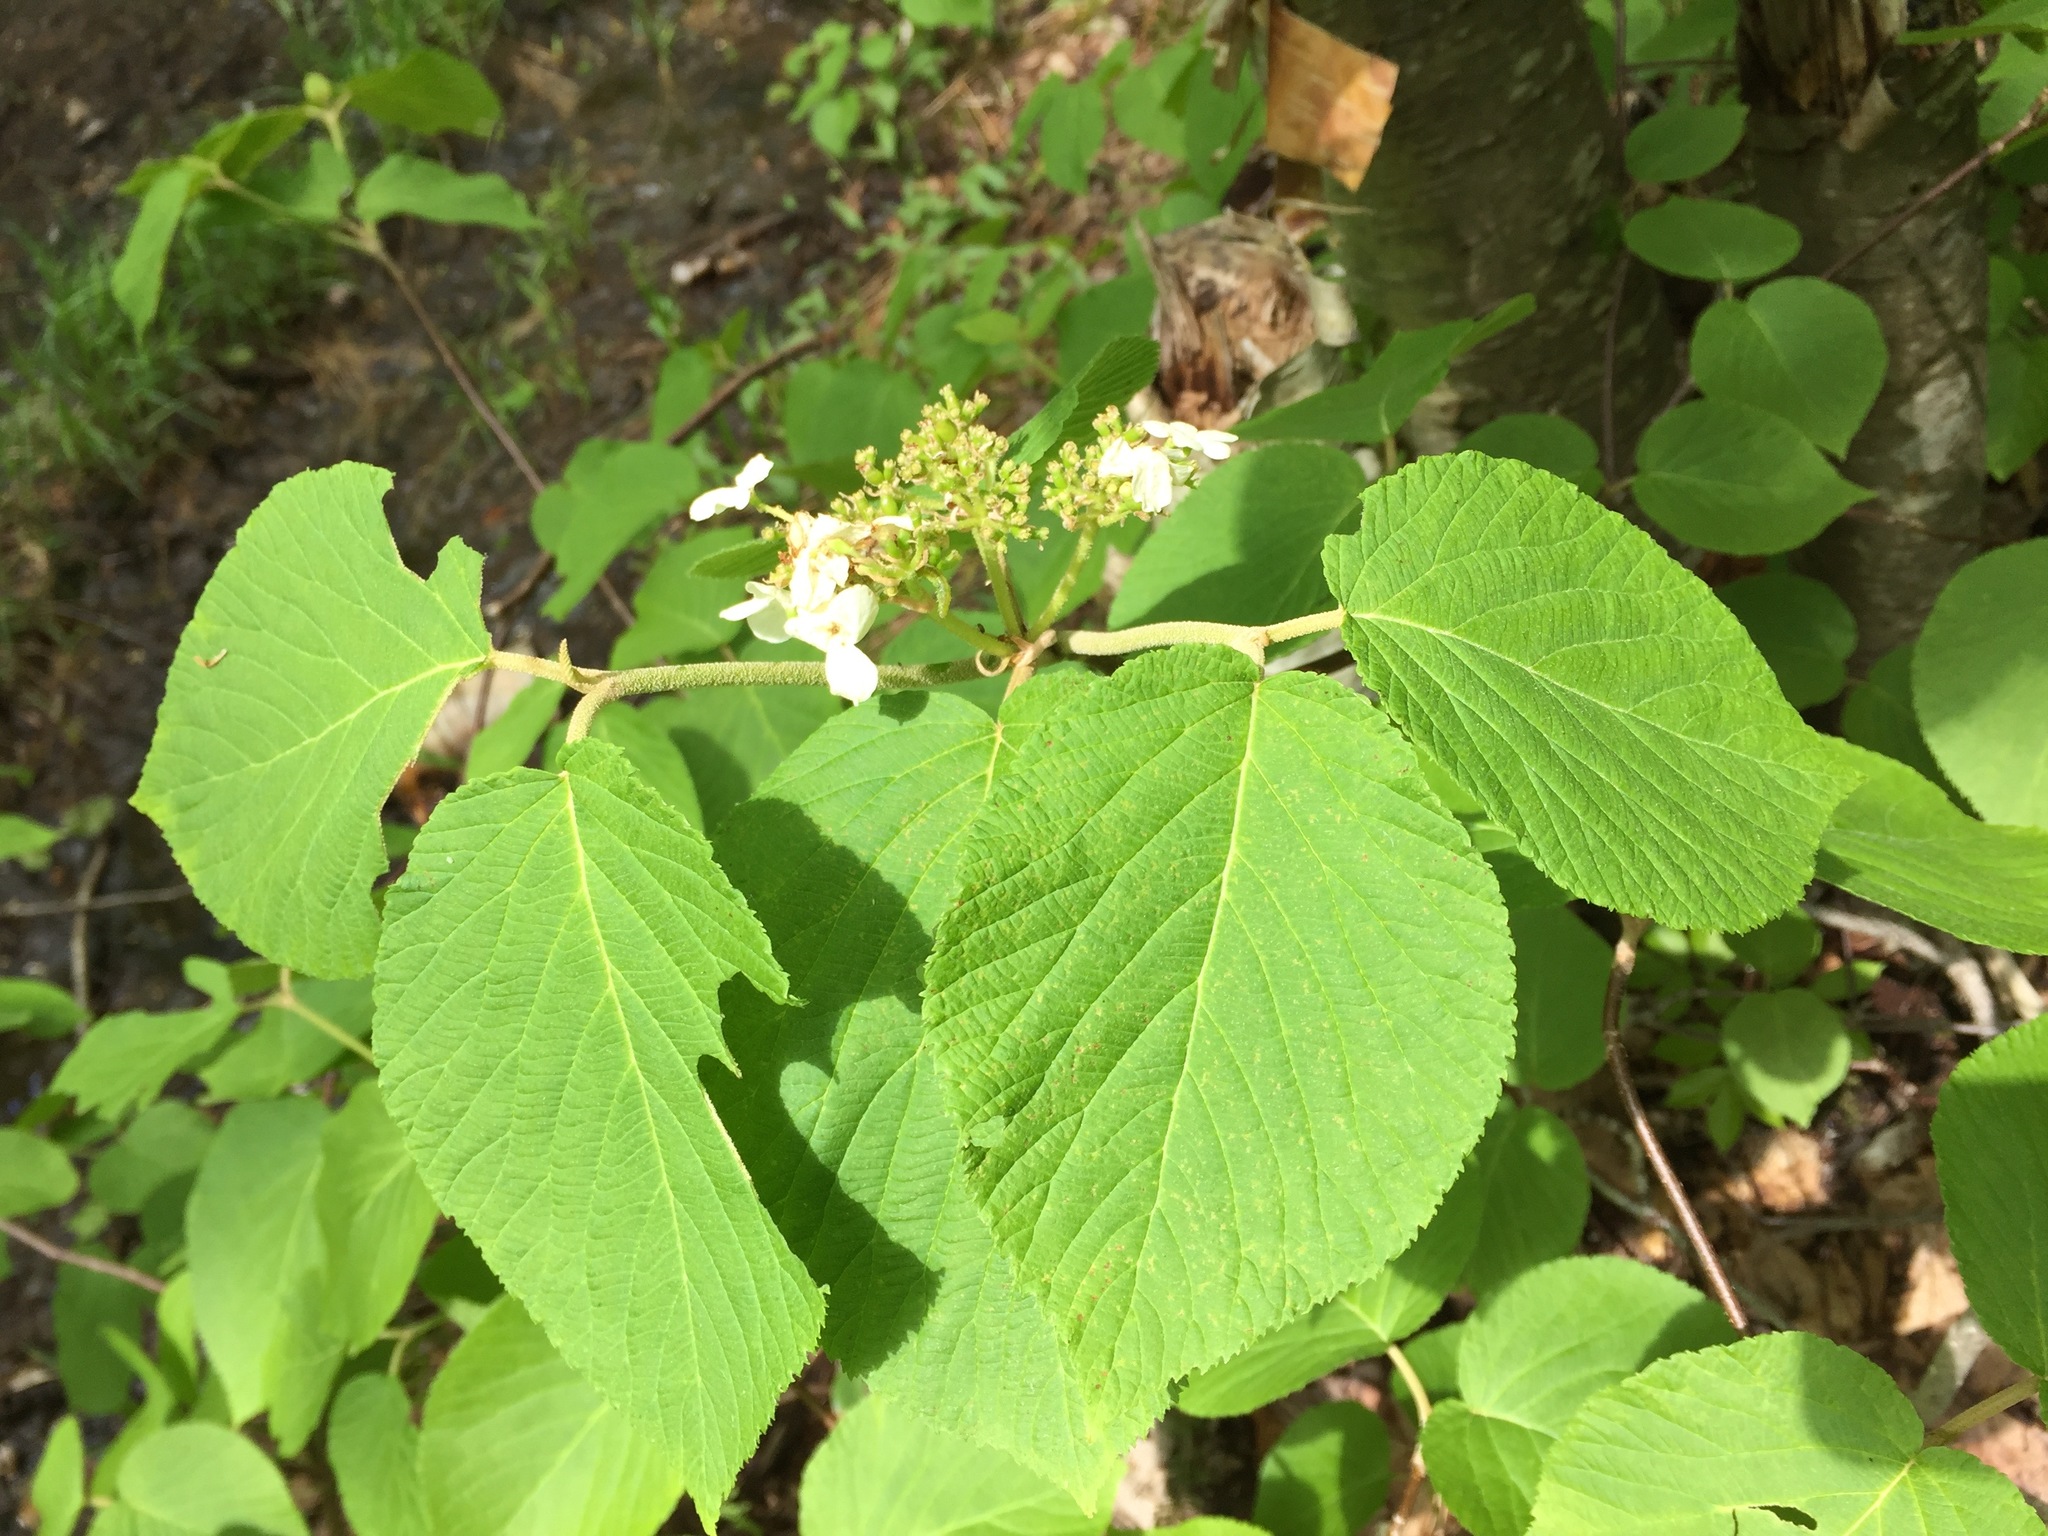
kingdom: Plantae
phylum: Tracheophyta
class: Magnoliopsida
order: Dipsacales
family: Viburnaceae
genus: Viburnum
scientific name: Viburnum lantanoides
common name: Hobblebush
